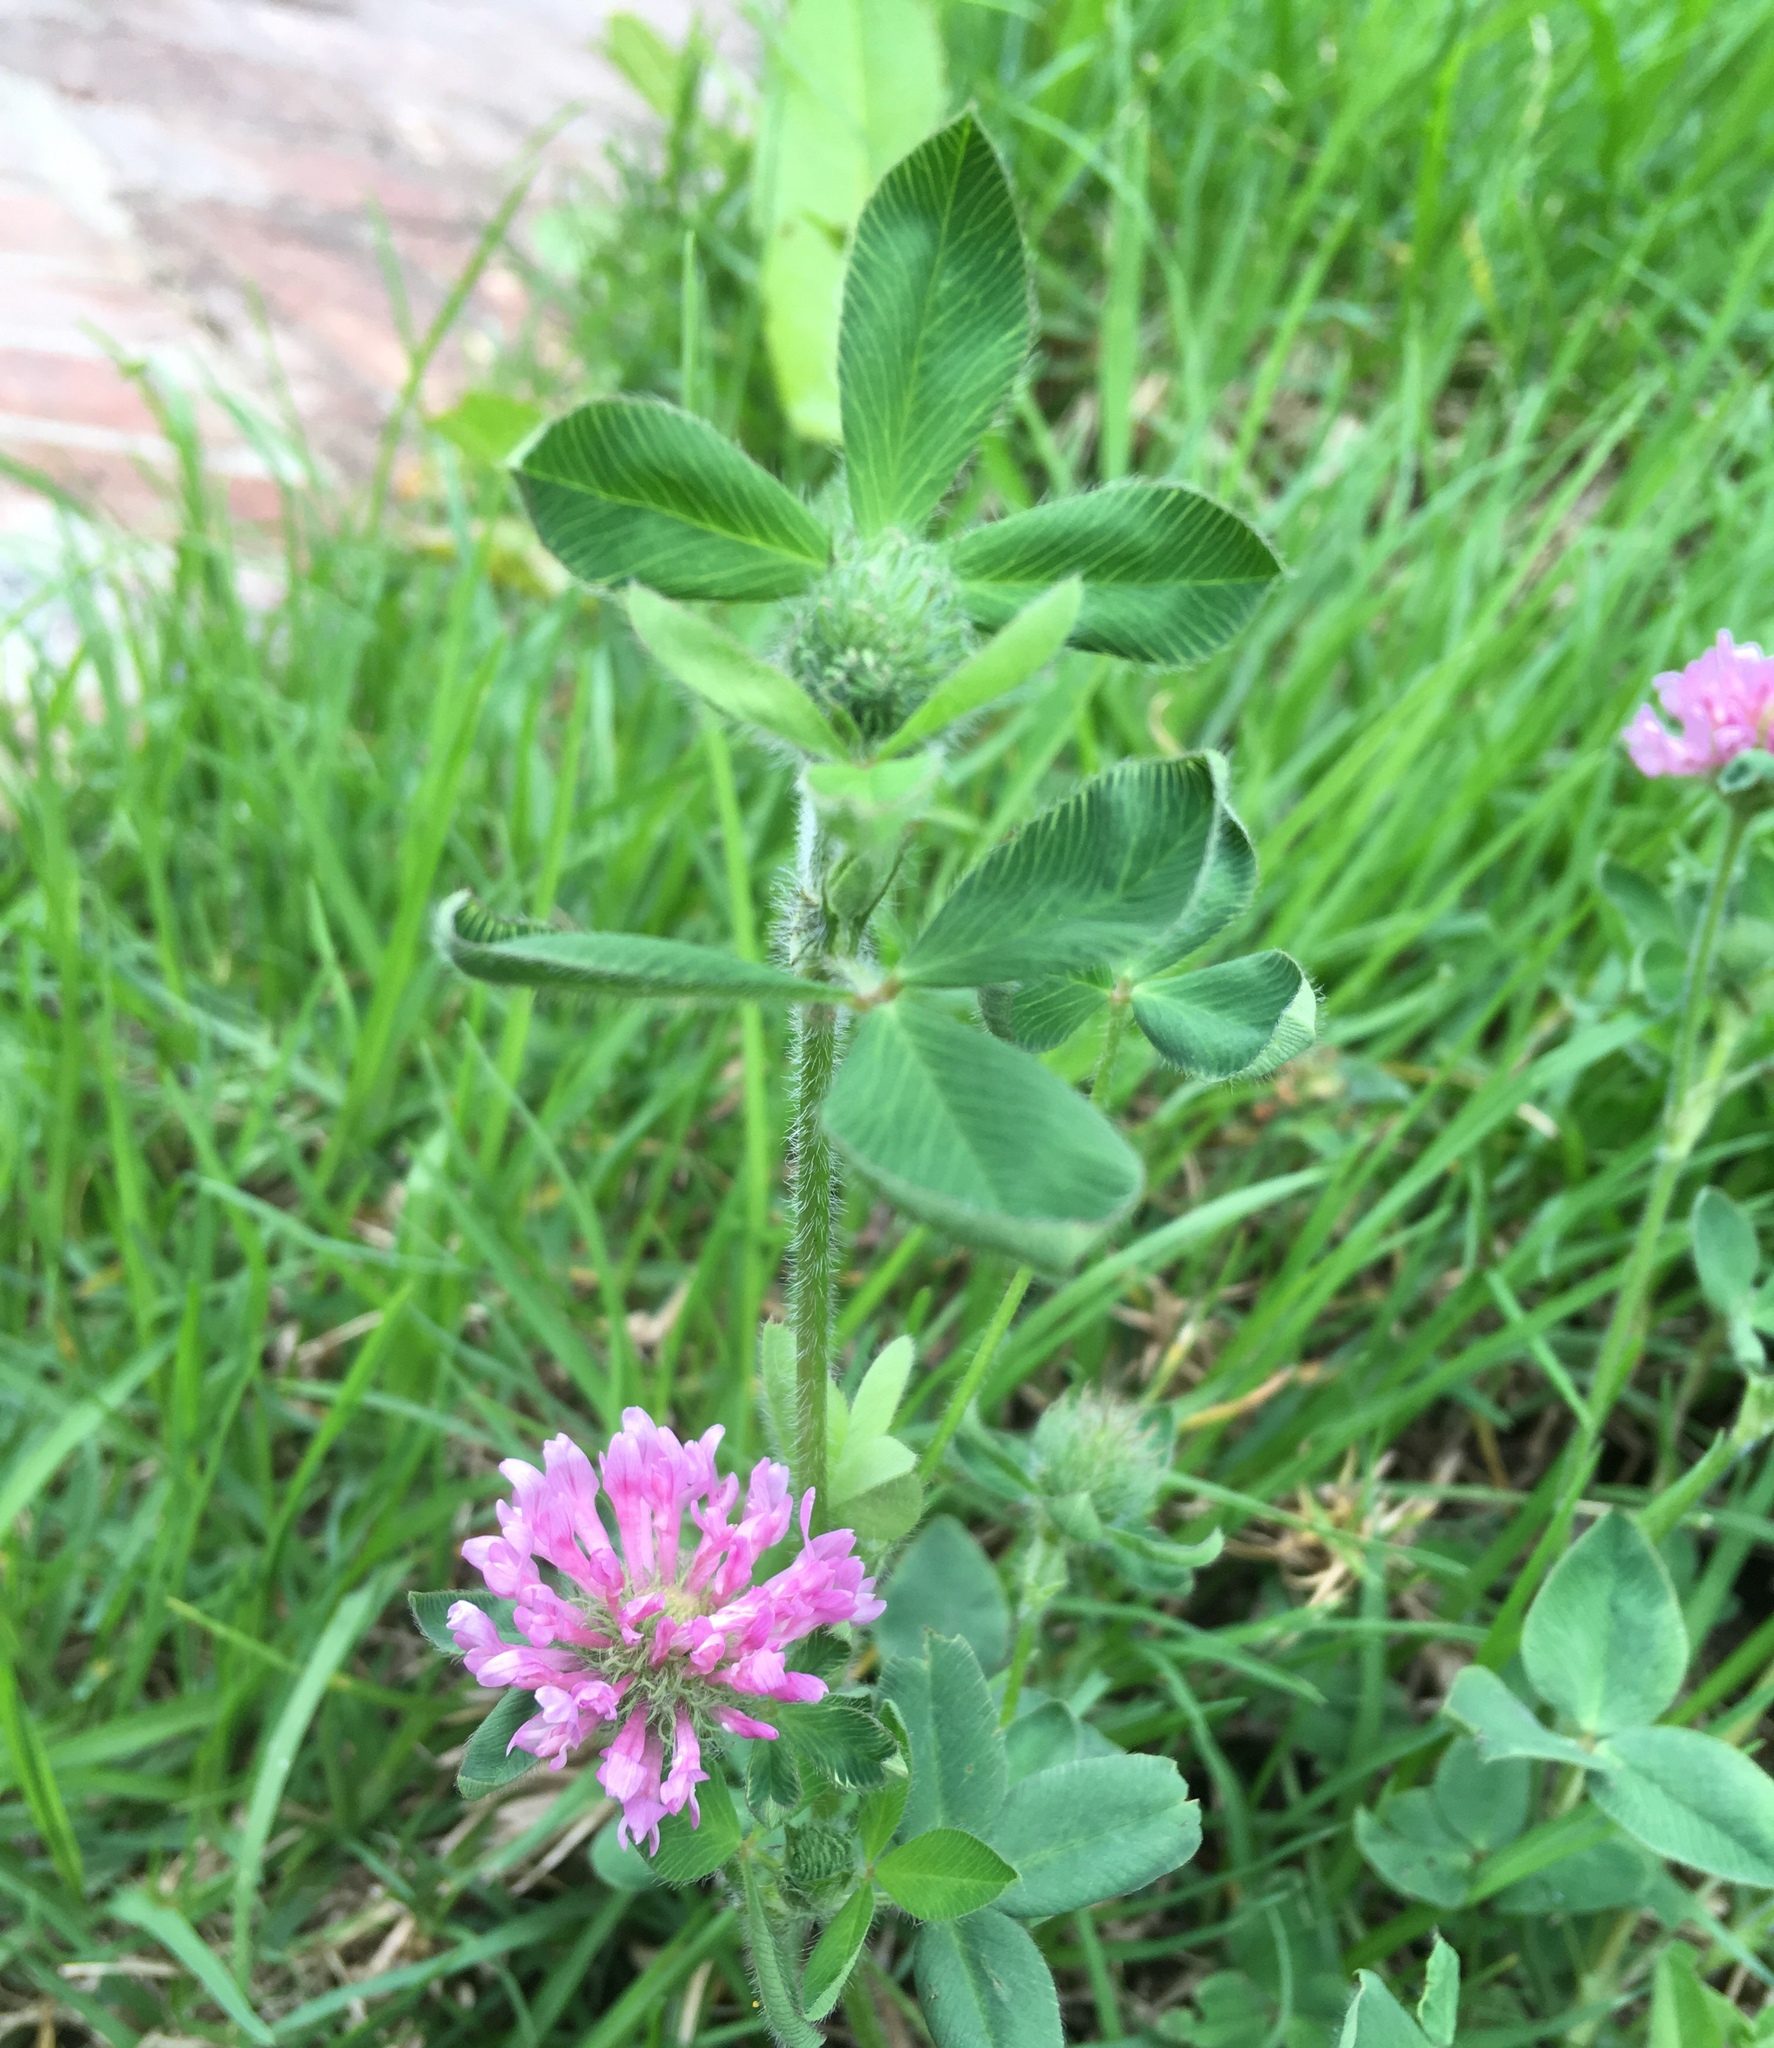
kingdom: Plantae
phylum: Tracheophyta
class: Magnoliopsida
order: Fabales
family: Fabaceae
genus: Trifolium
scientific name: Trifolium pratense
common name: Red clover
